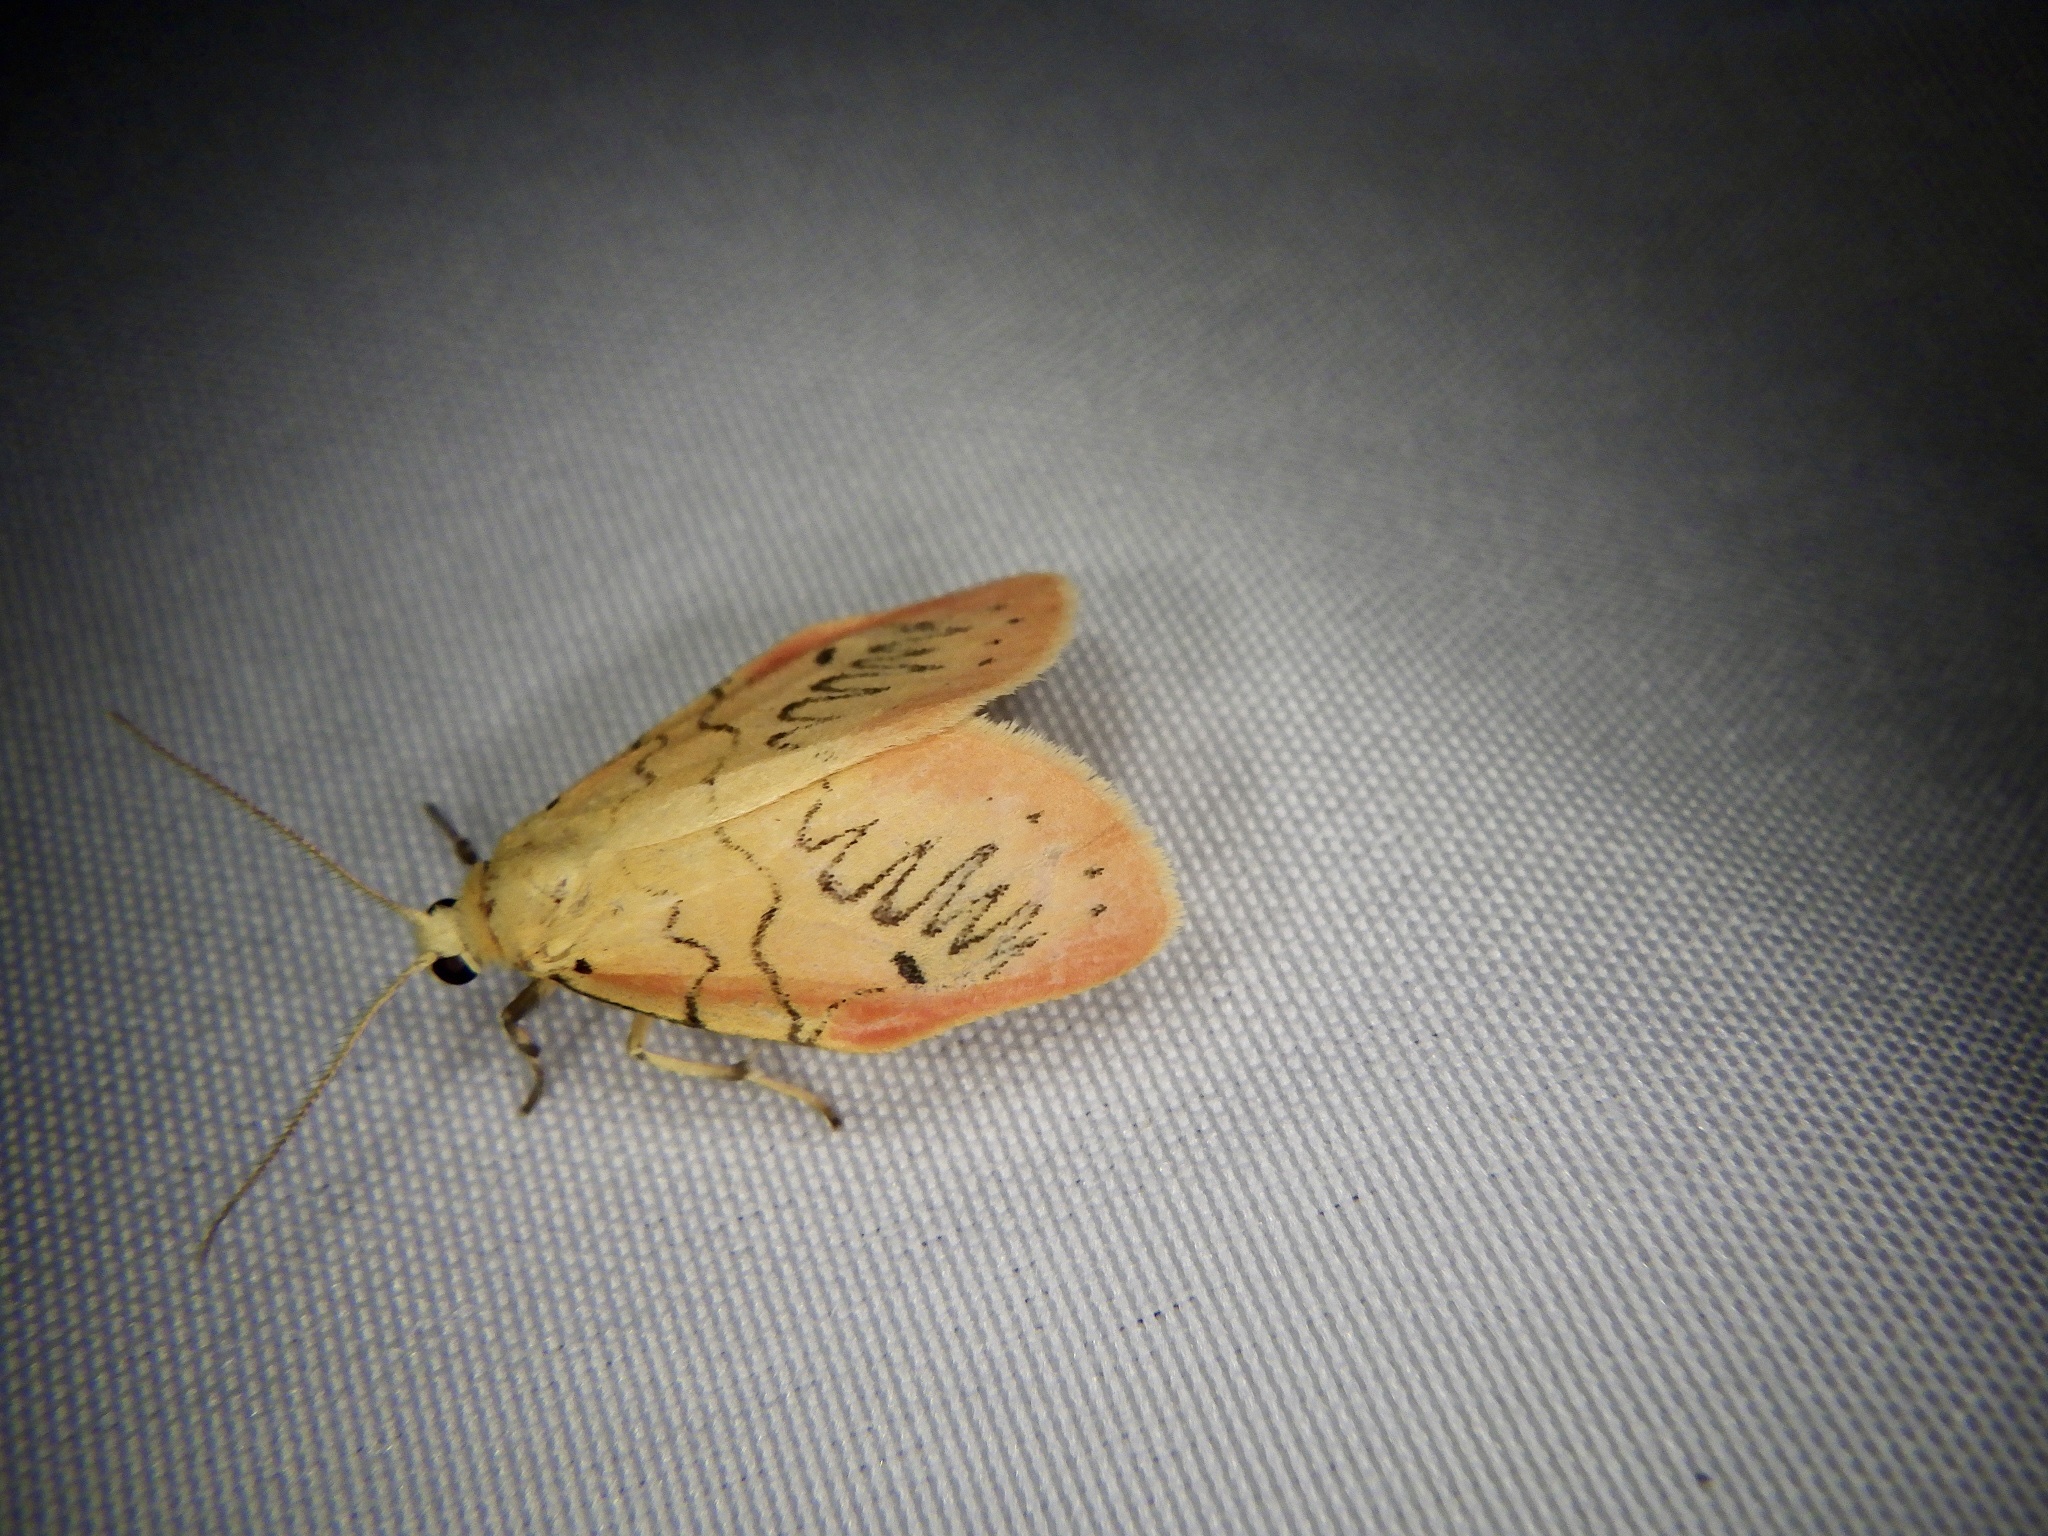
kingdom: Animalia
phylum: Arthropoda
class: Insecta
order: Lepidoptera
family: Erebidae
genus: Miltochrista
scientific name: Miltochrista miniata
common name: Rosy footman
